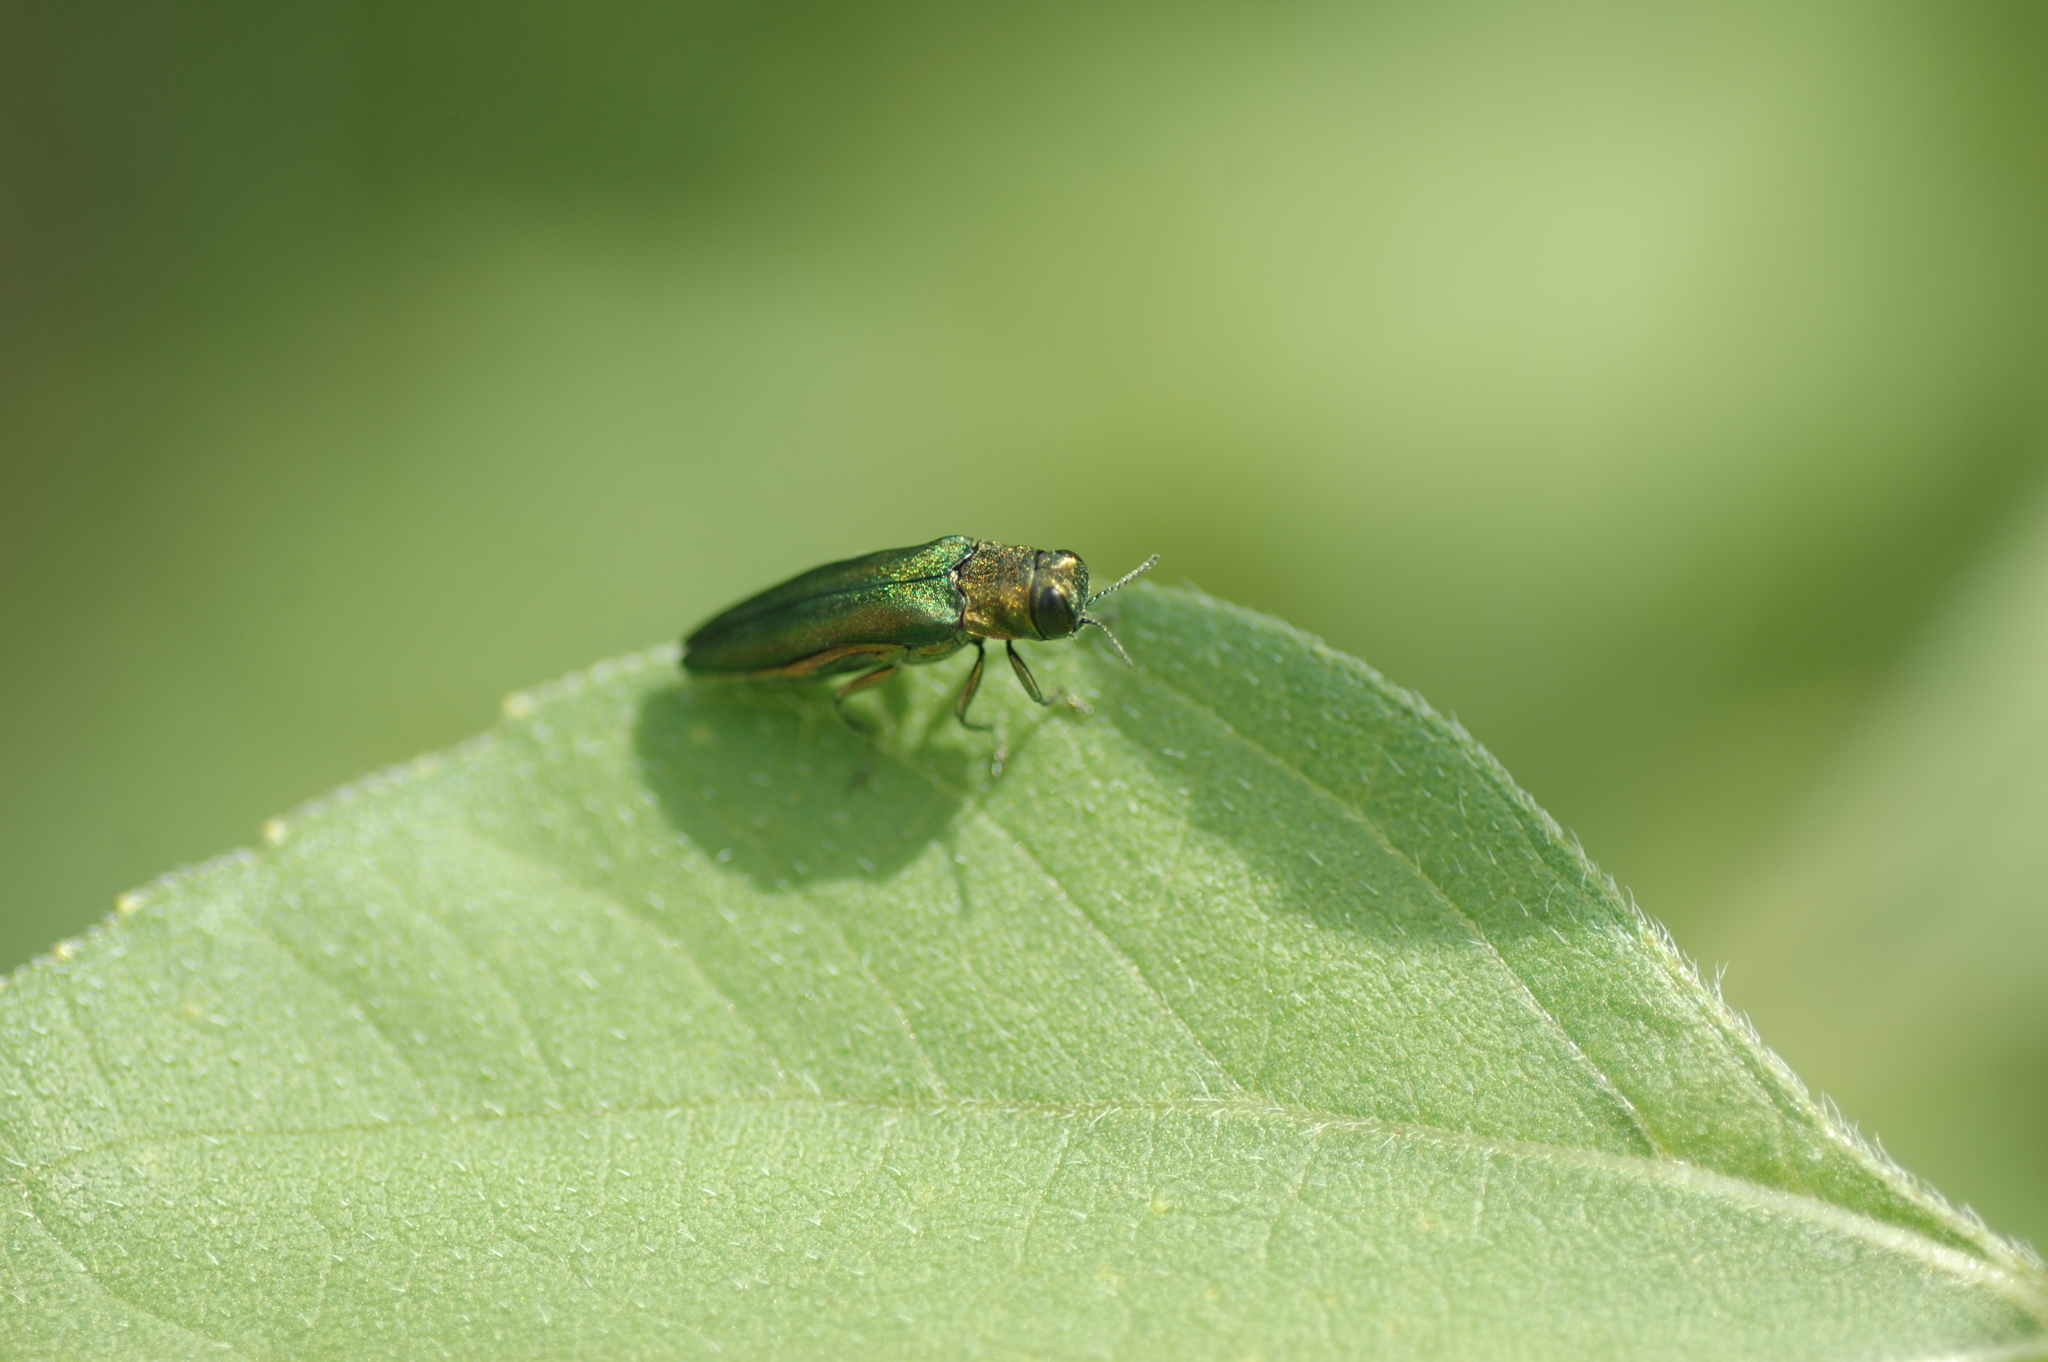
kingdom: Animalia
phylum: Arthropoda
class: Insecta
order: Coleoptera
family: Buprestidae
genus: Agrilus
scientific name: Agrilus planipennis
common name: Emerald ash borer
